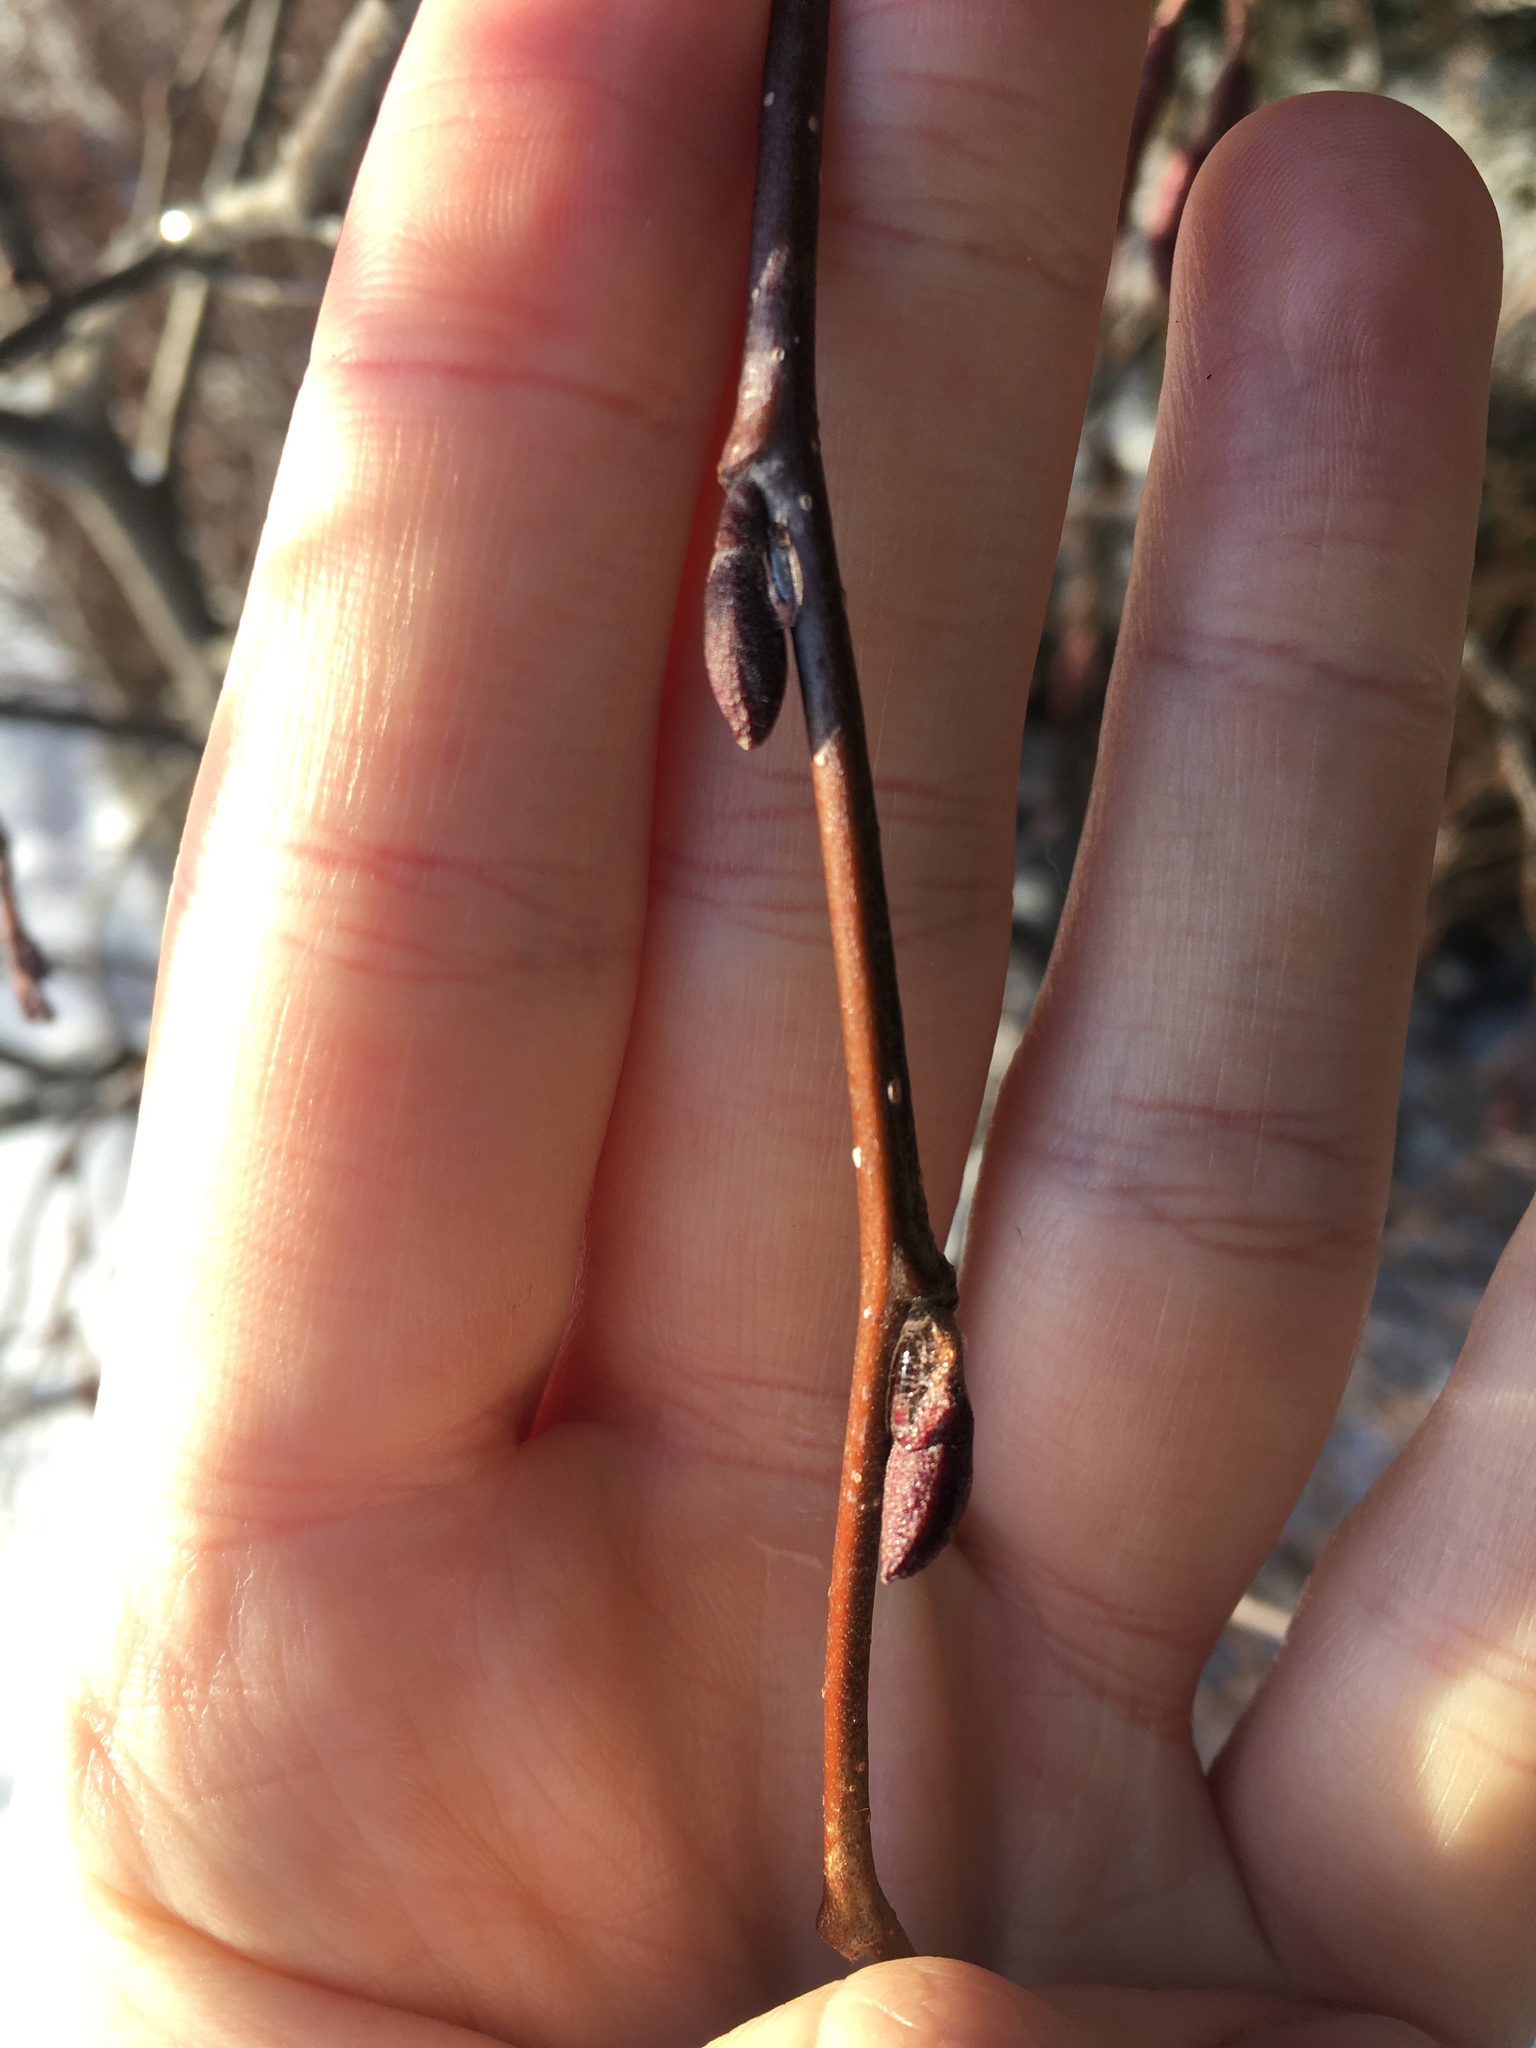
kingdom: Plantae
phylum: Tracheophyta
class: Magnoliopsida
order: Fagales
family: Betulaceae
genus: Alnus
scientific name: Alnus incana
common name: Grey alder
